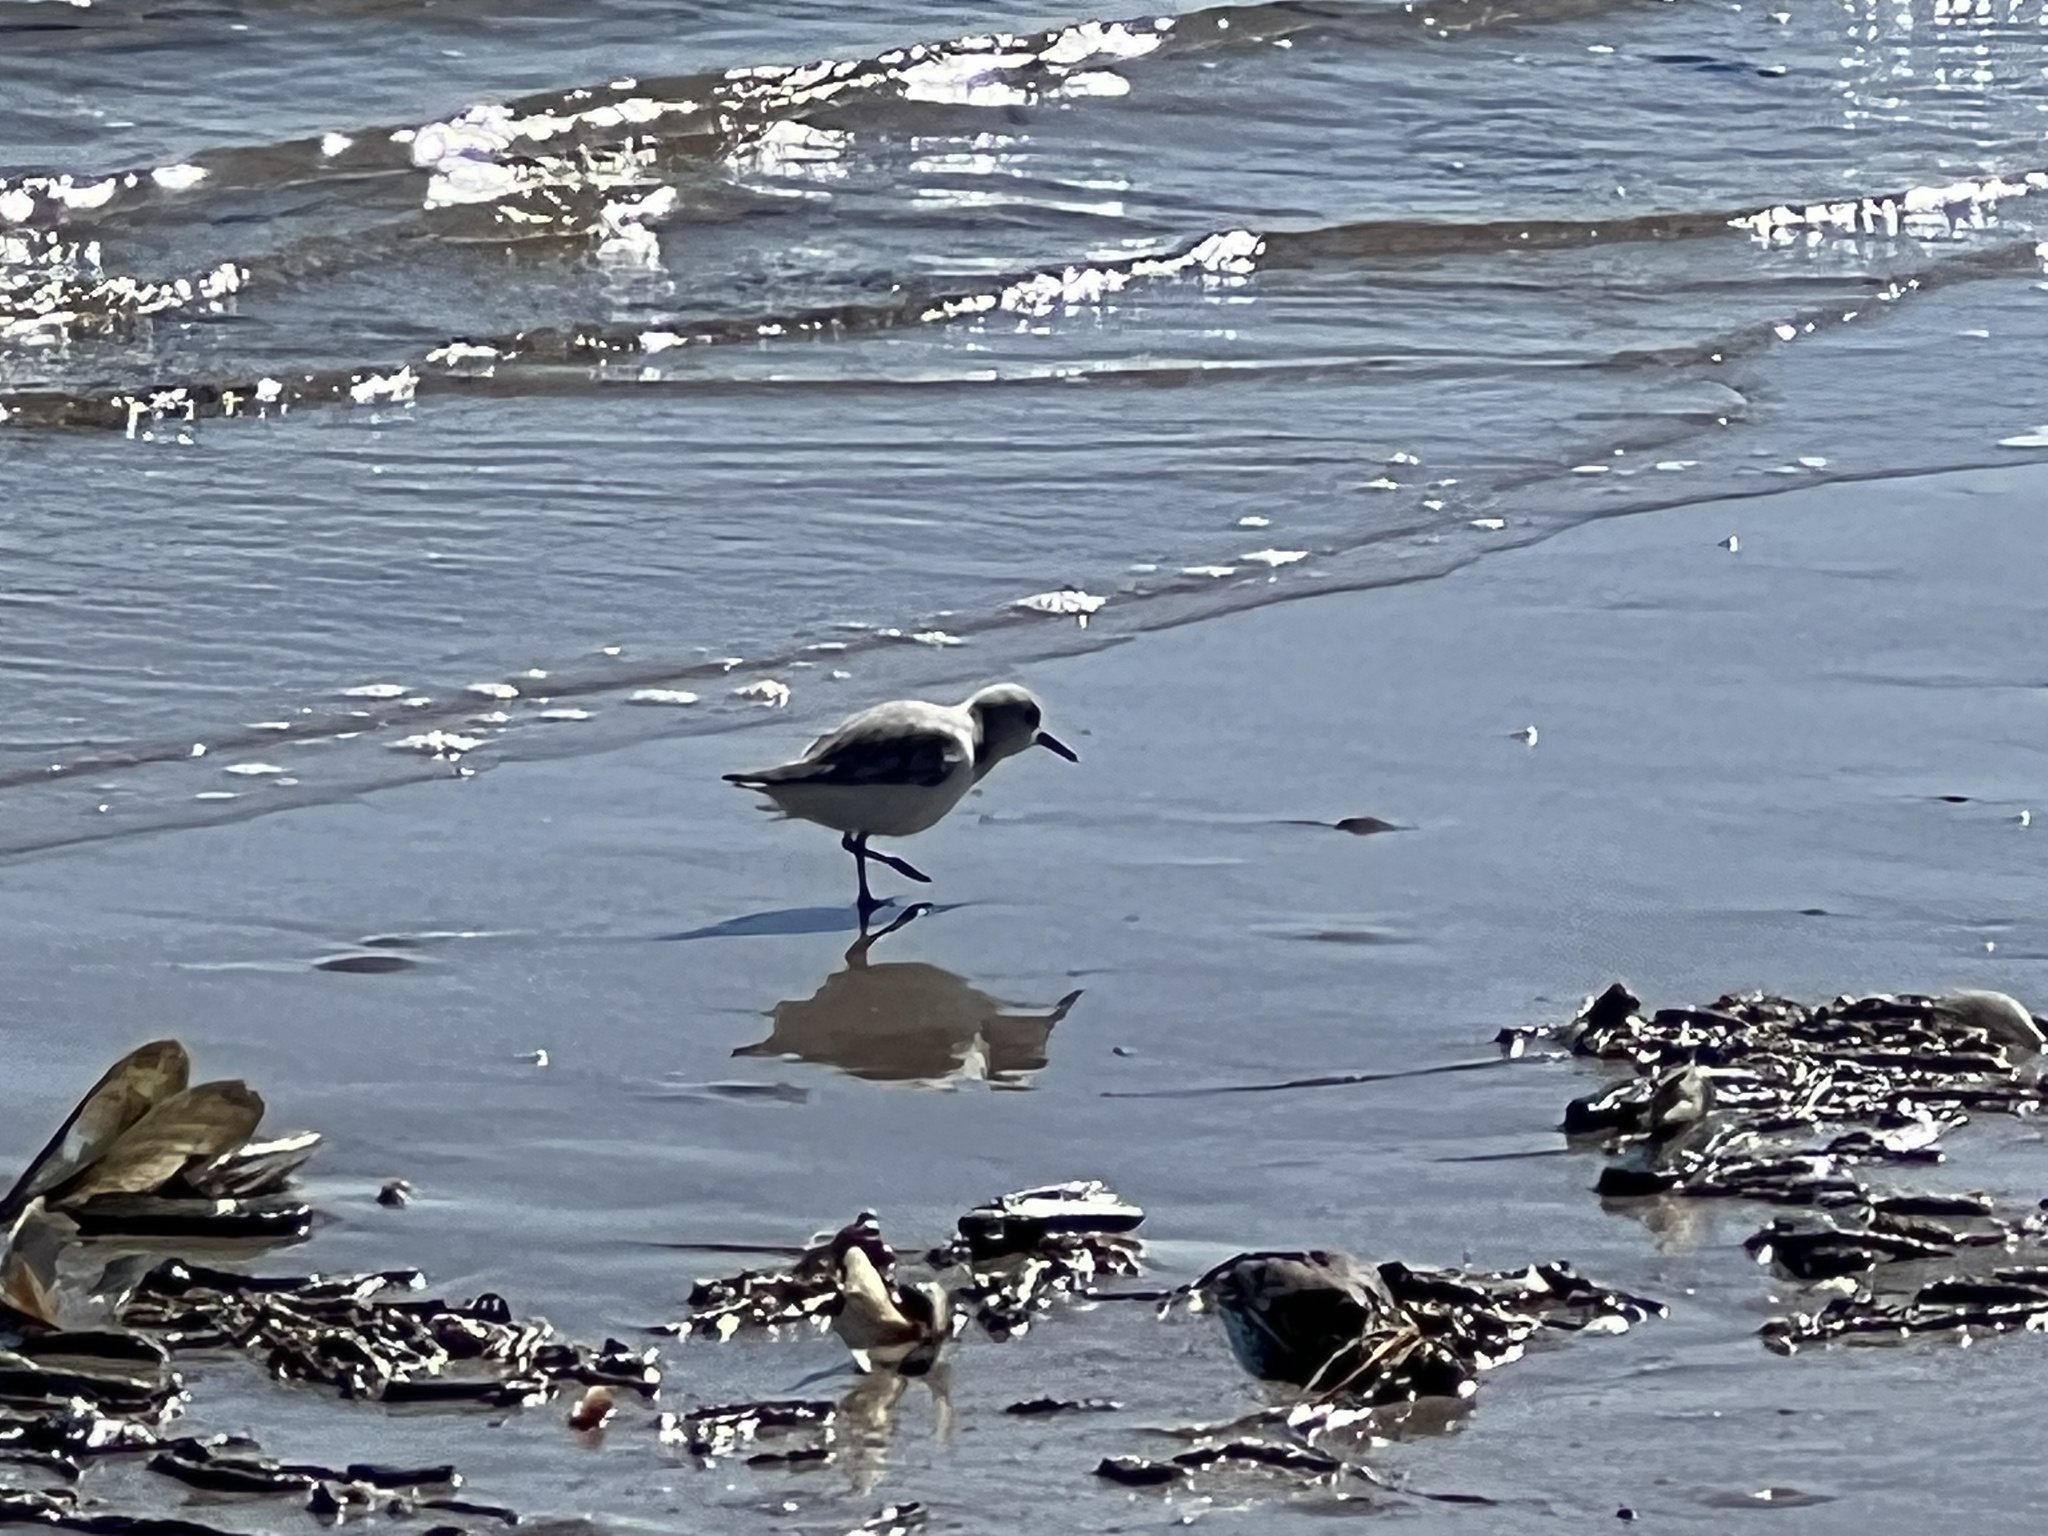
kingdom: Animalia
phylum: Chordata
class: Aves
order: Charadriiformes
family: Scolopacidae
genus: Calidris
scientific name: Calidris alba
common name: Sanderling
